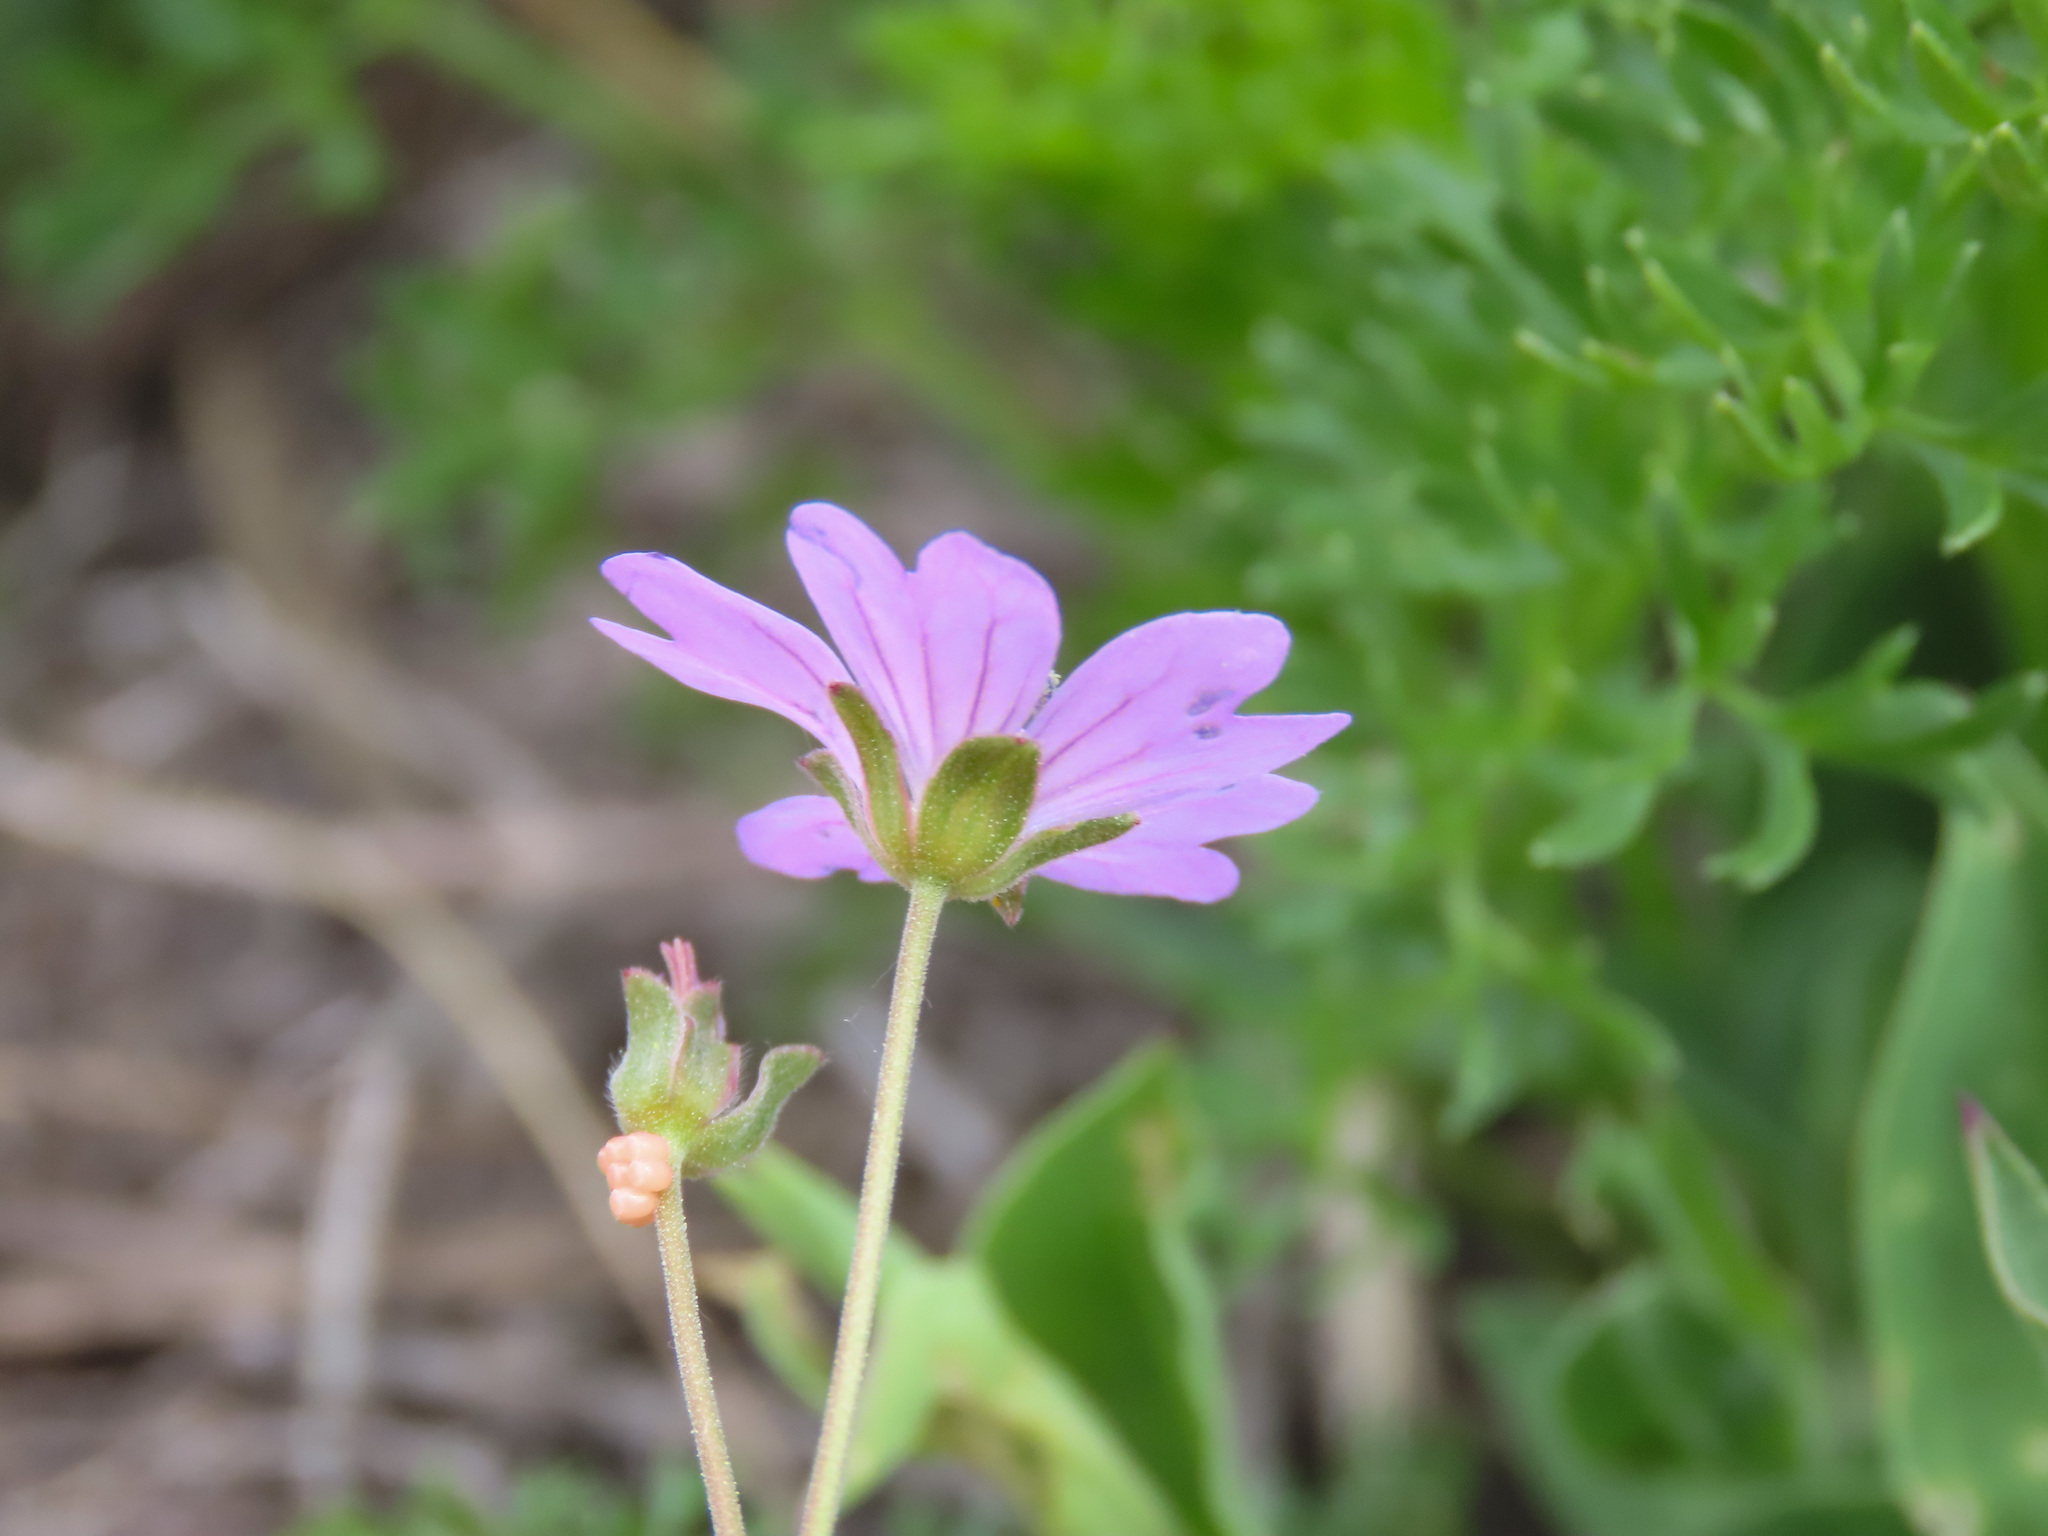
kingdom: Plantae
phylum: Tracheophyta
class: Magnoliopsida
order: Geraniales
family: Geraniaceae
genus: Geranium
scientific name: Geranium pyrenaicum
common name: Hedgerow crane's-bill
